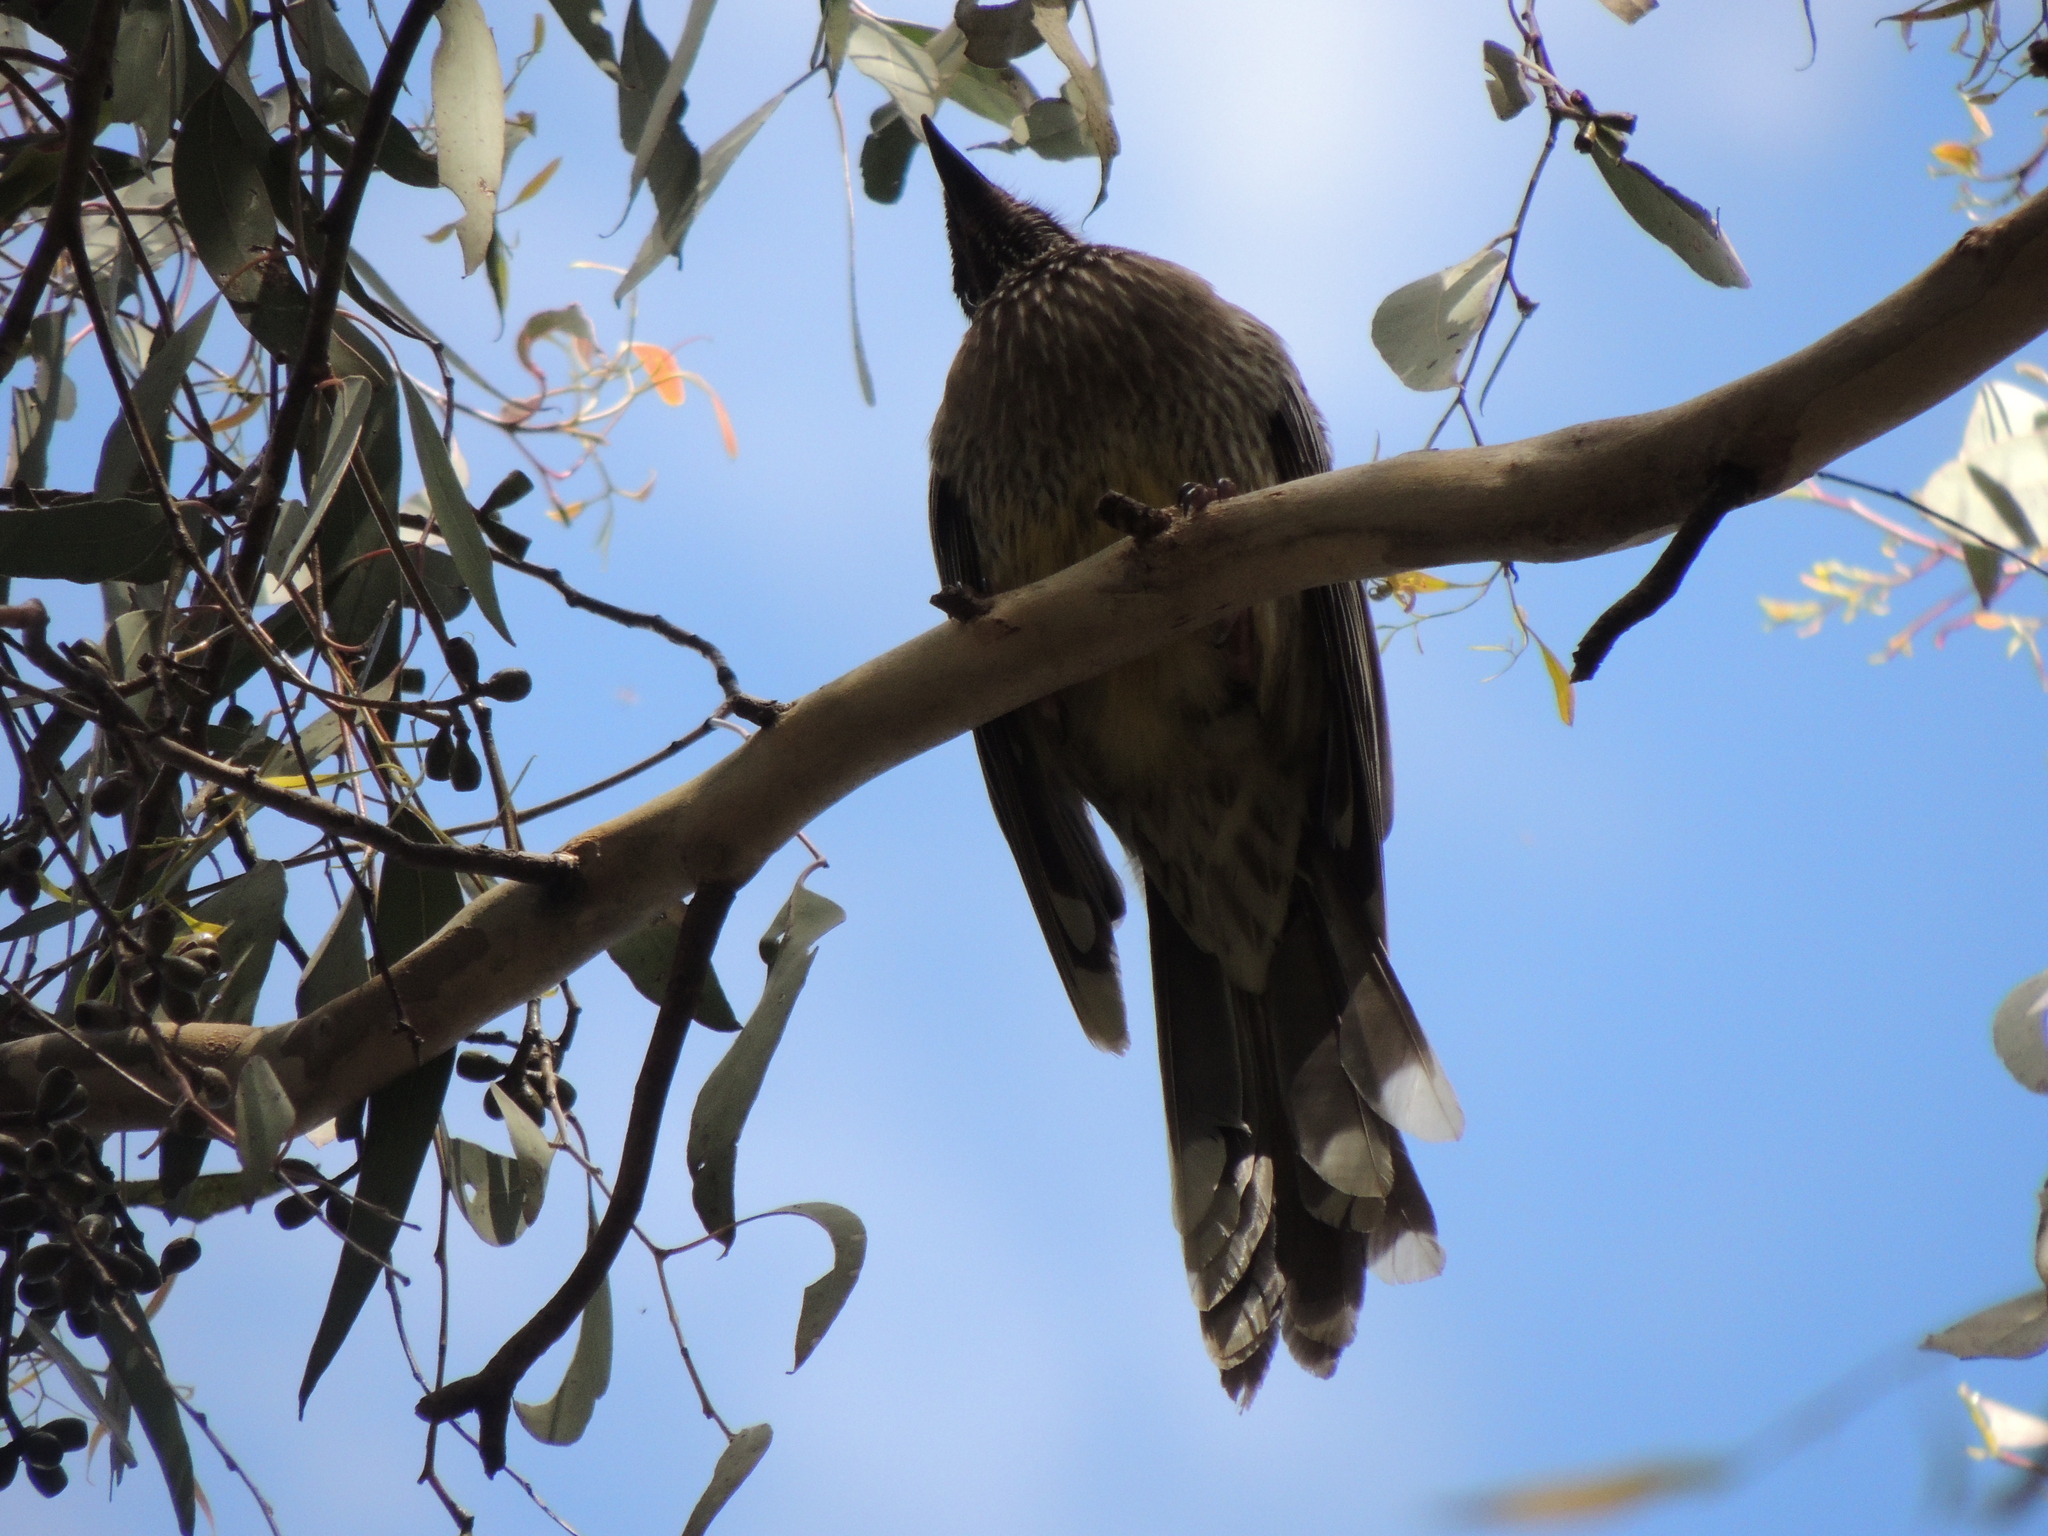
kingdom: Animalia
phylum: Chordata
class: Aves
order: Passeriformes
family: Meliphagidae
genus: Anthochaera
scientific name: Anthochaera carunculata
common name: Red wattlebird
